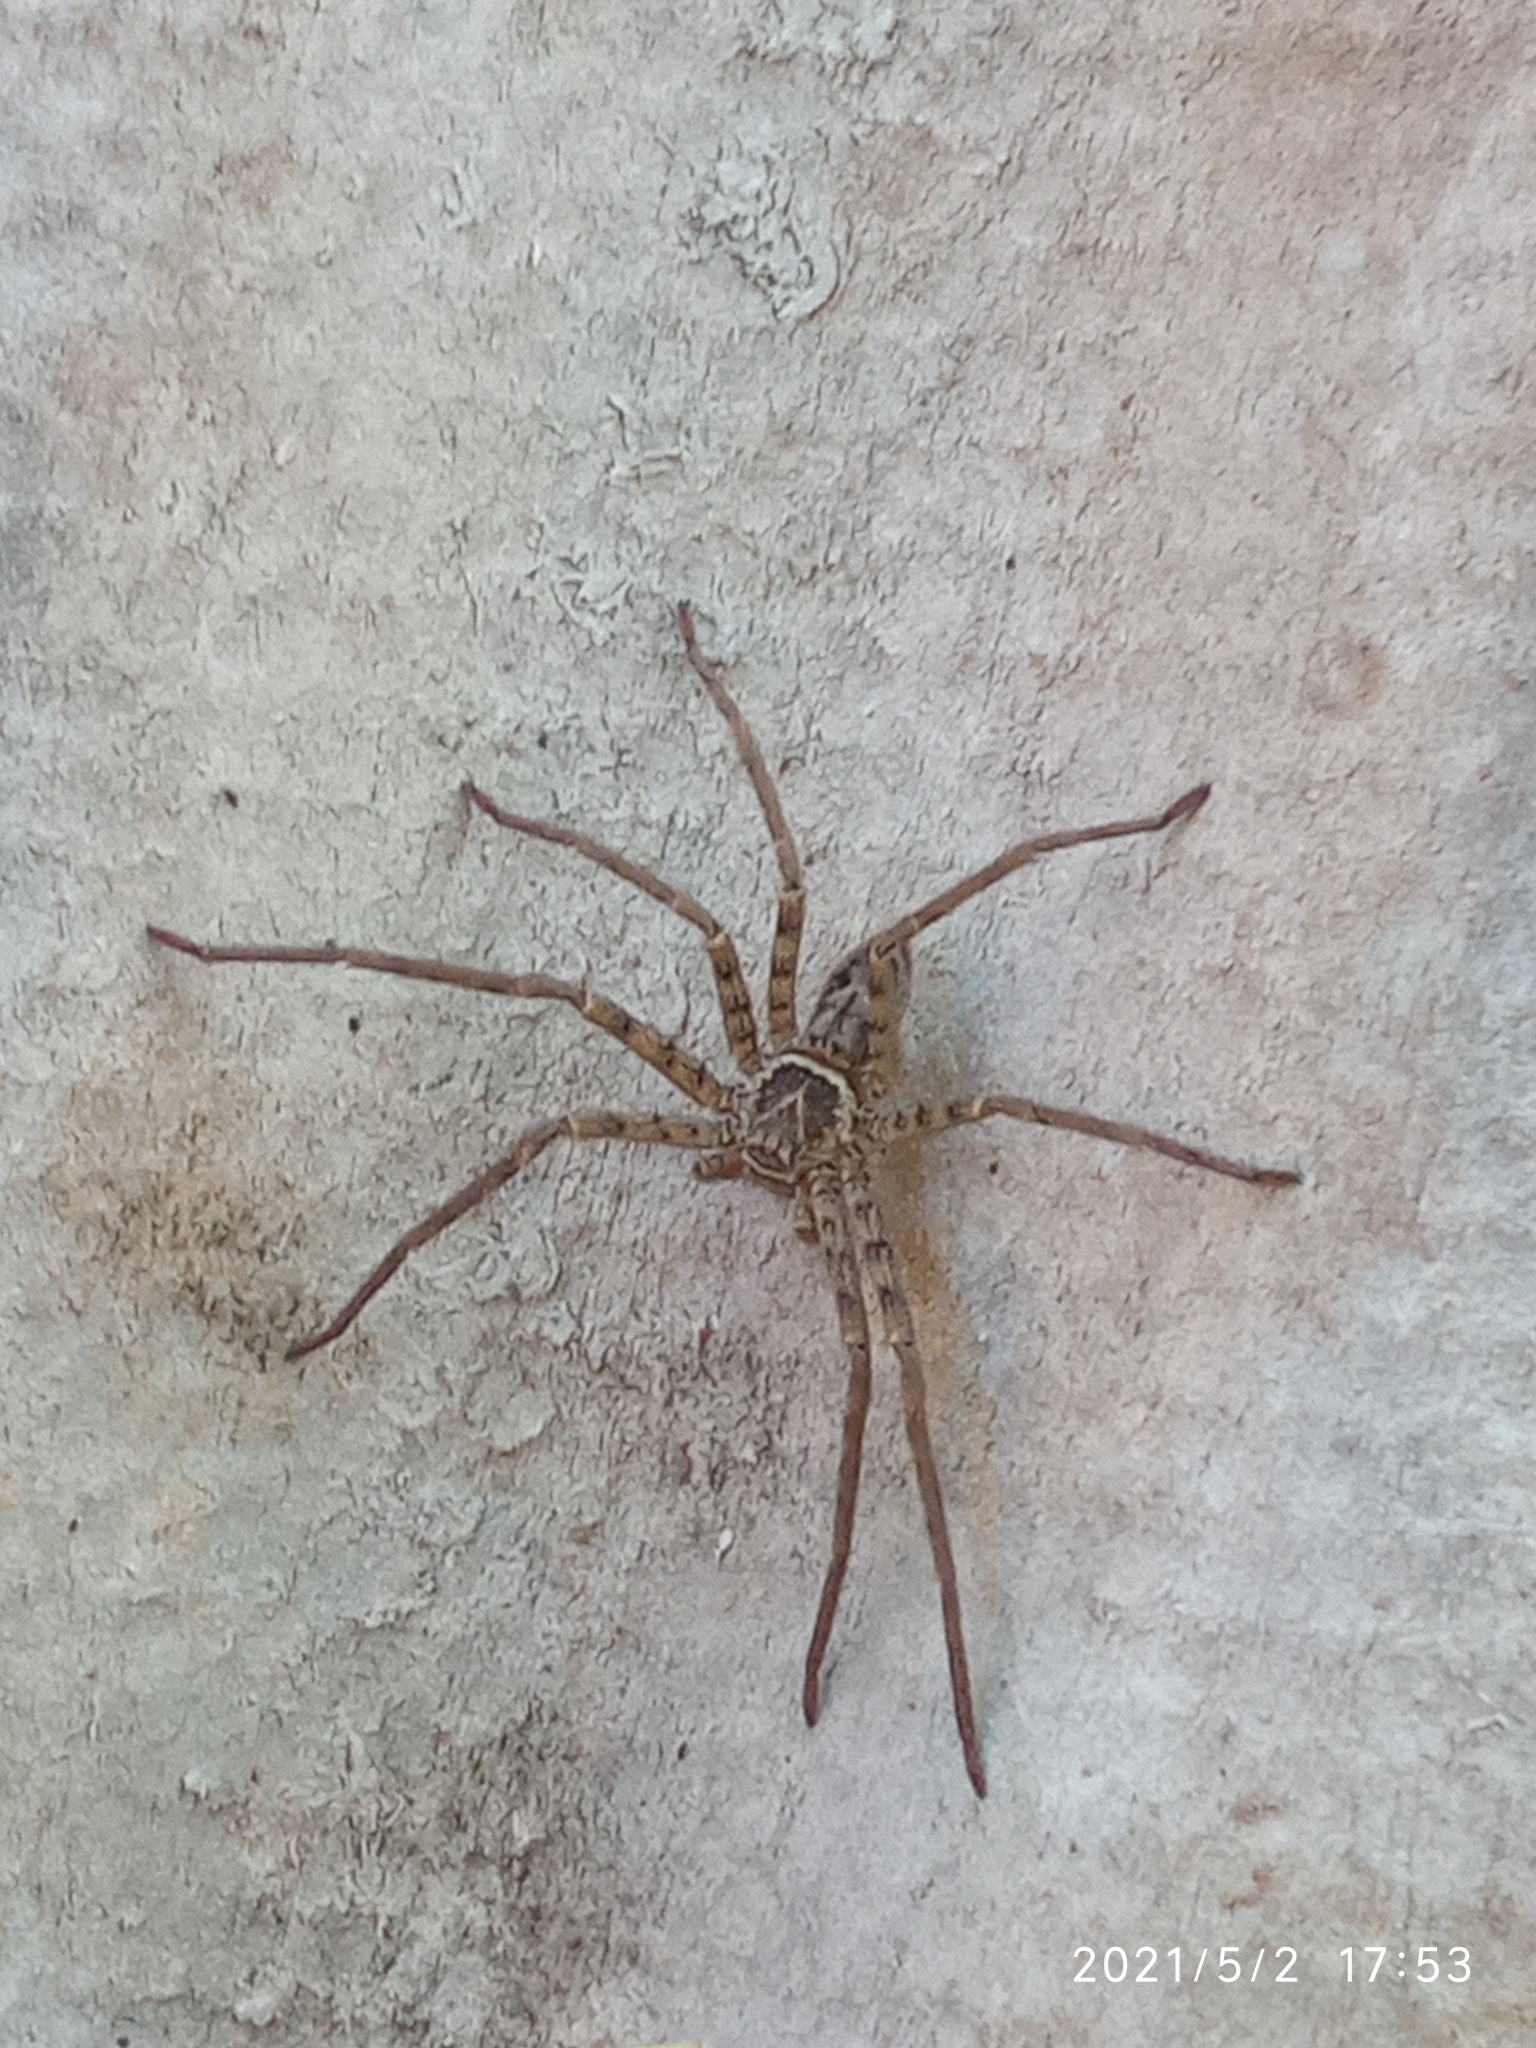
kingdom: Animalia
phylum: Arthropoda
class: Arachnida
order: Araneae
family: Sparassidae
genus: Heteropoda
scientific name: Heteropoda venatoria
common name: Huntsman spider
